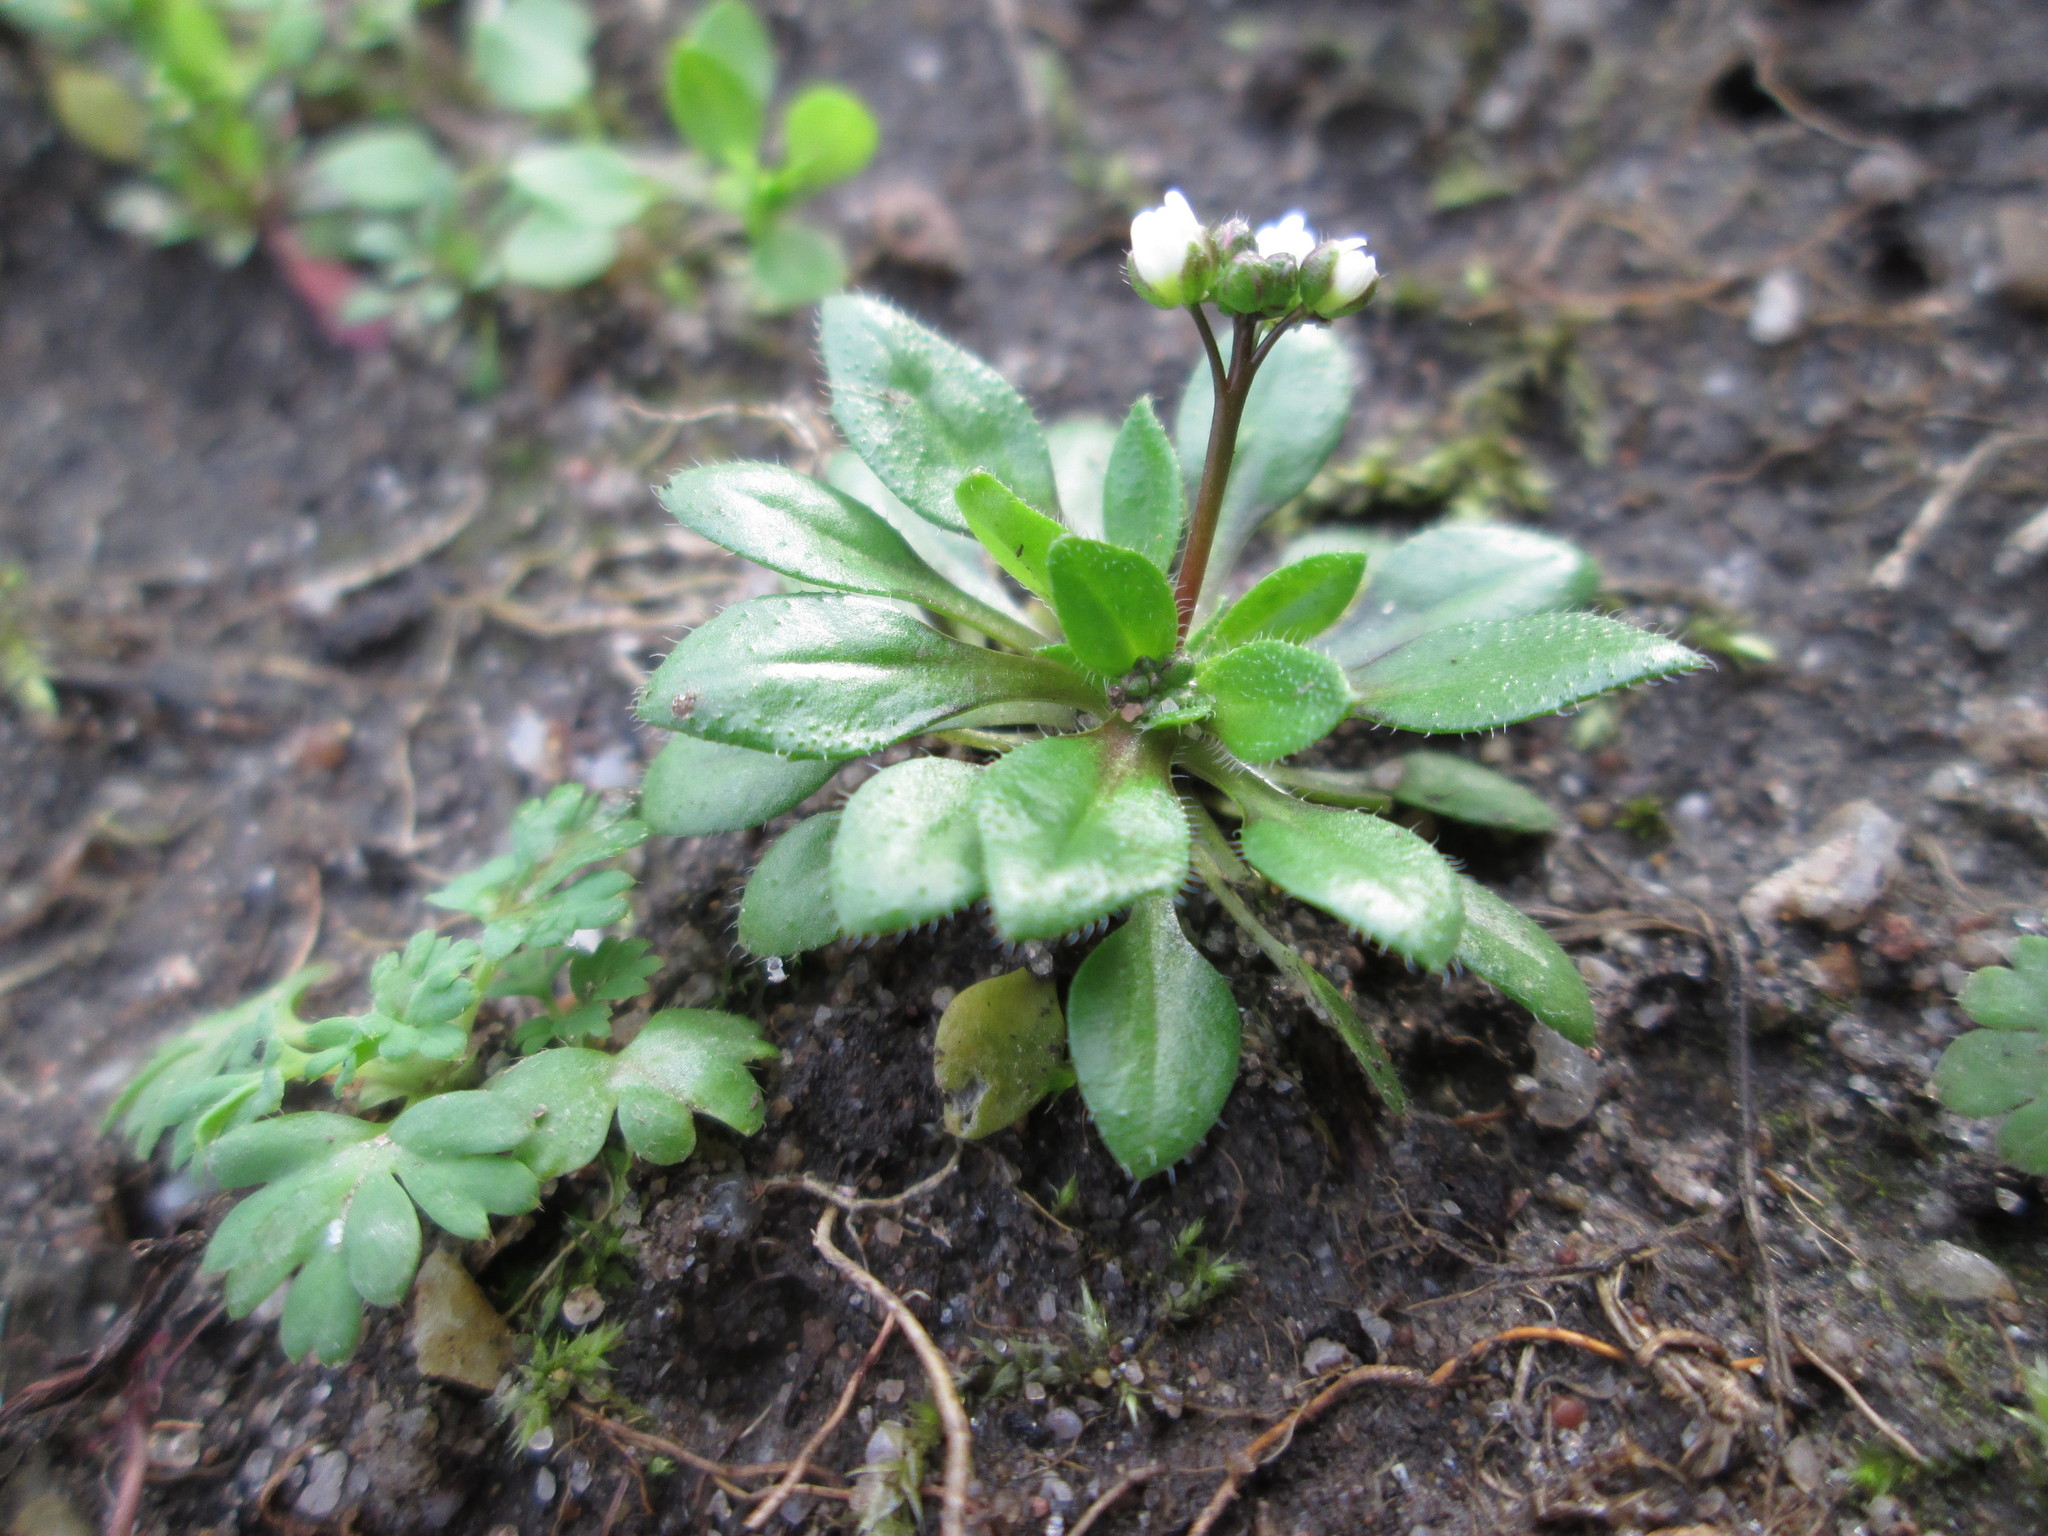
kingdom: Plantae
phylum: Tracheophyta
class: Magnoliopsida
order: Brassicales
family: Brassicaceae
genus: Draba
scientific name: Draba verna
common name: Spring draba
